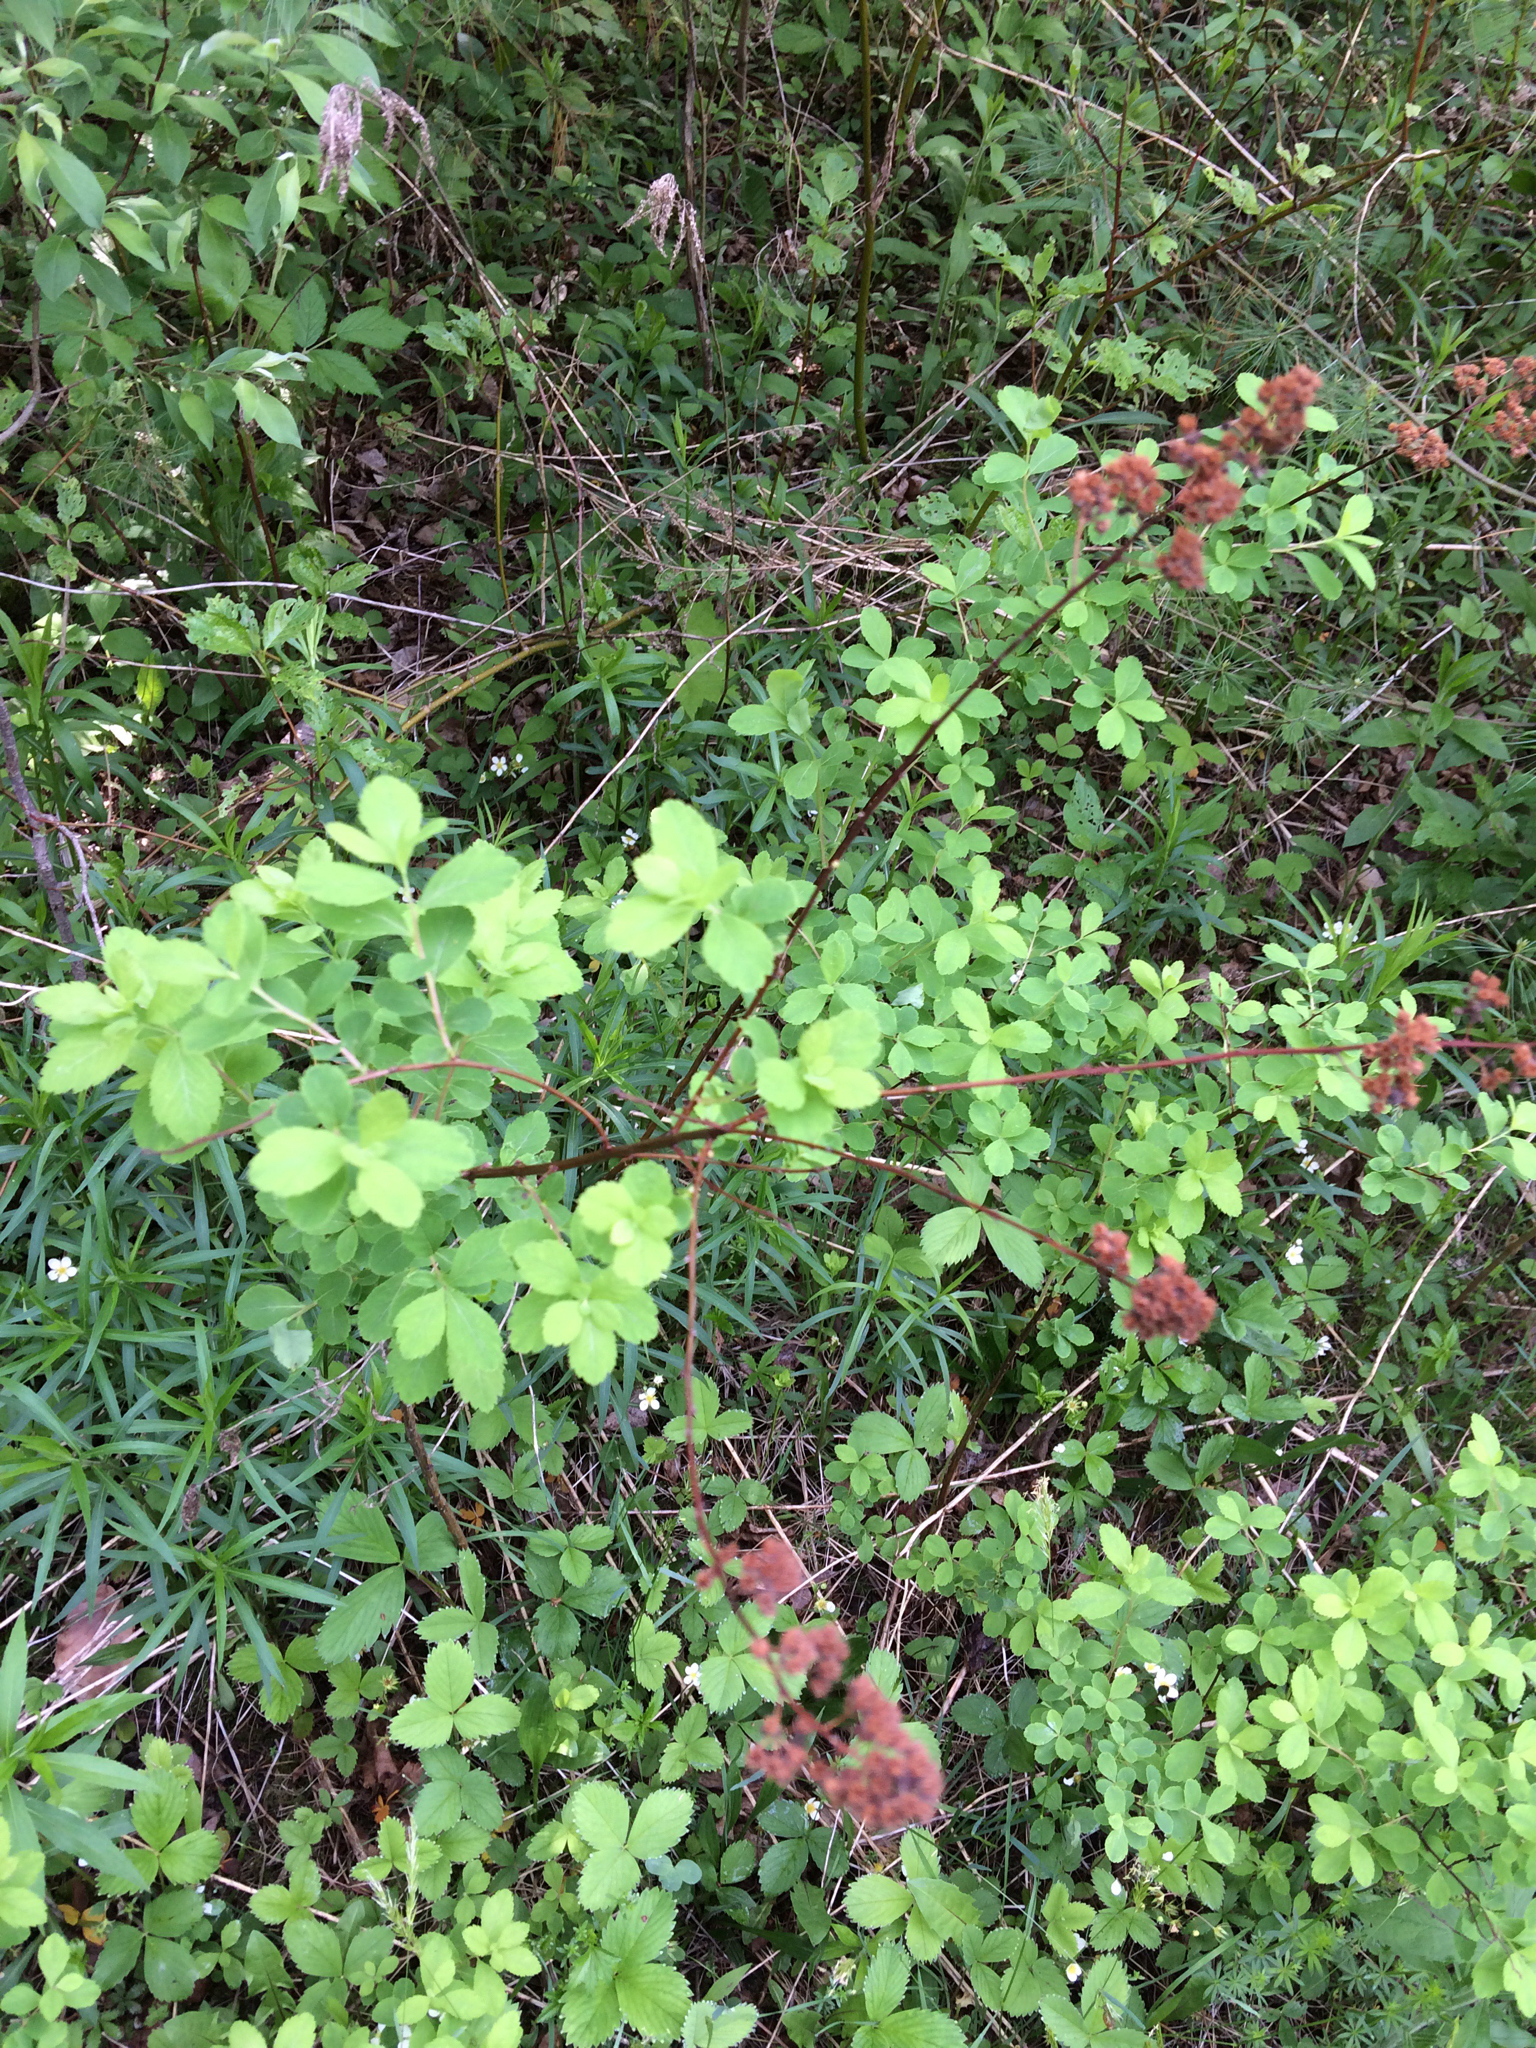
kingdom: Plantae
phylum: Tracheophyta
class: Magnoliopsida
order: Rosales
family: Rosaceae
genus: Spiraea
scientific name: Spiraea alba
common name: Pale bridewort
